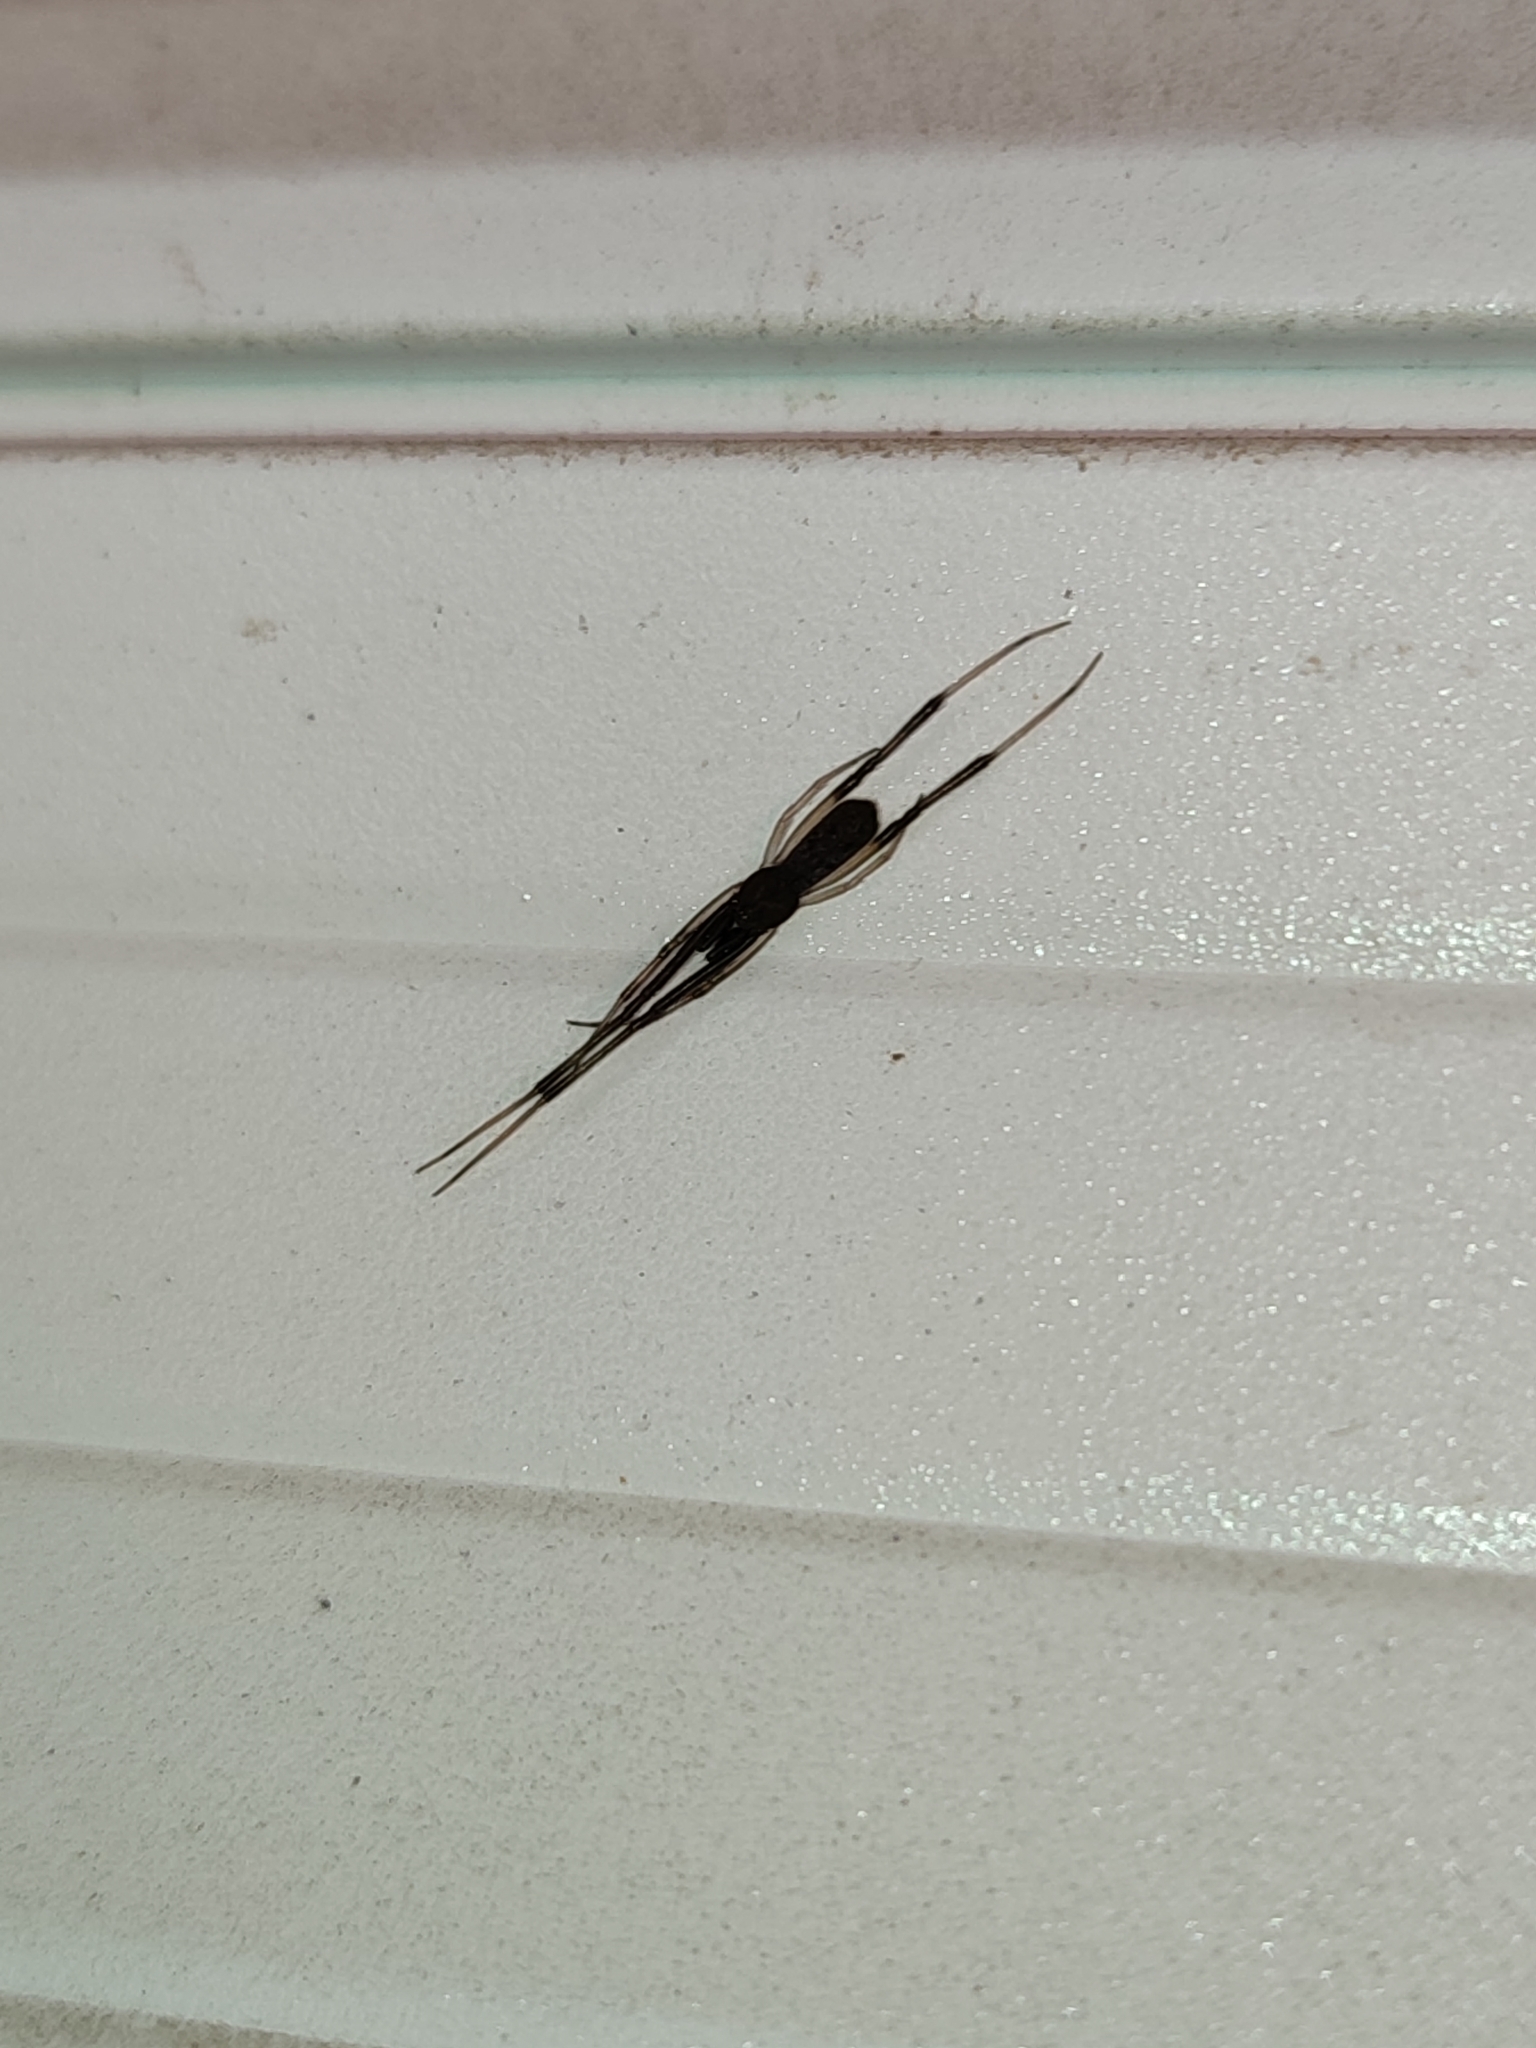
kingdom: Animalia
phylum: Arthropoda
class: Arachnida
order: Araneae
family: Theridiidae
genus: Episinus
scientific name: Episinus truncatus
